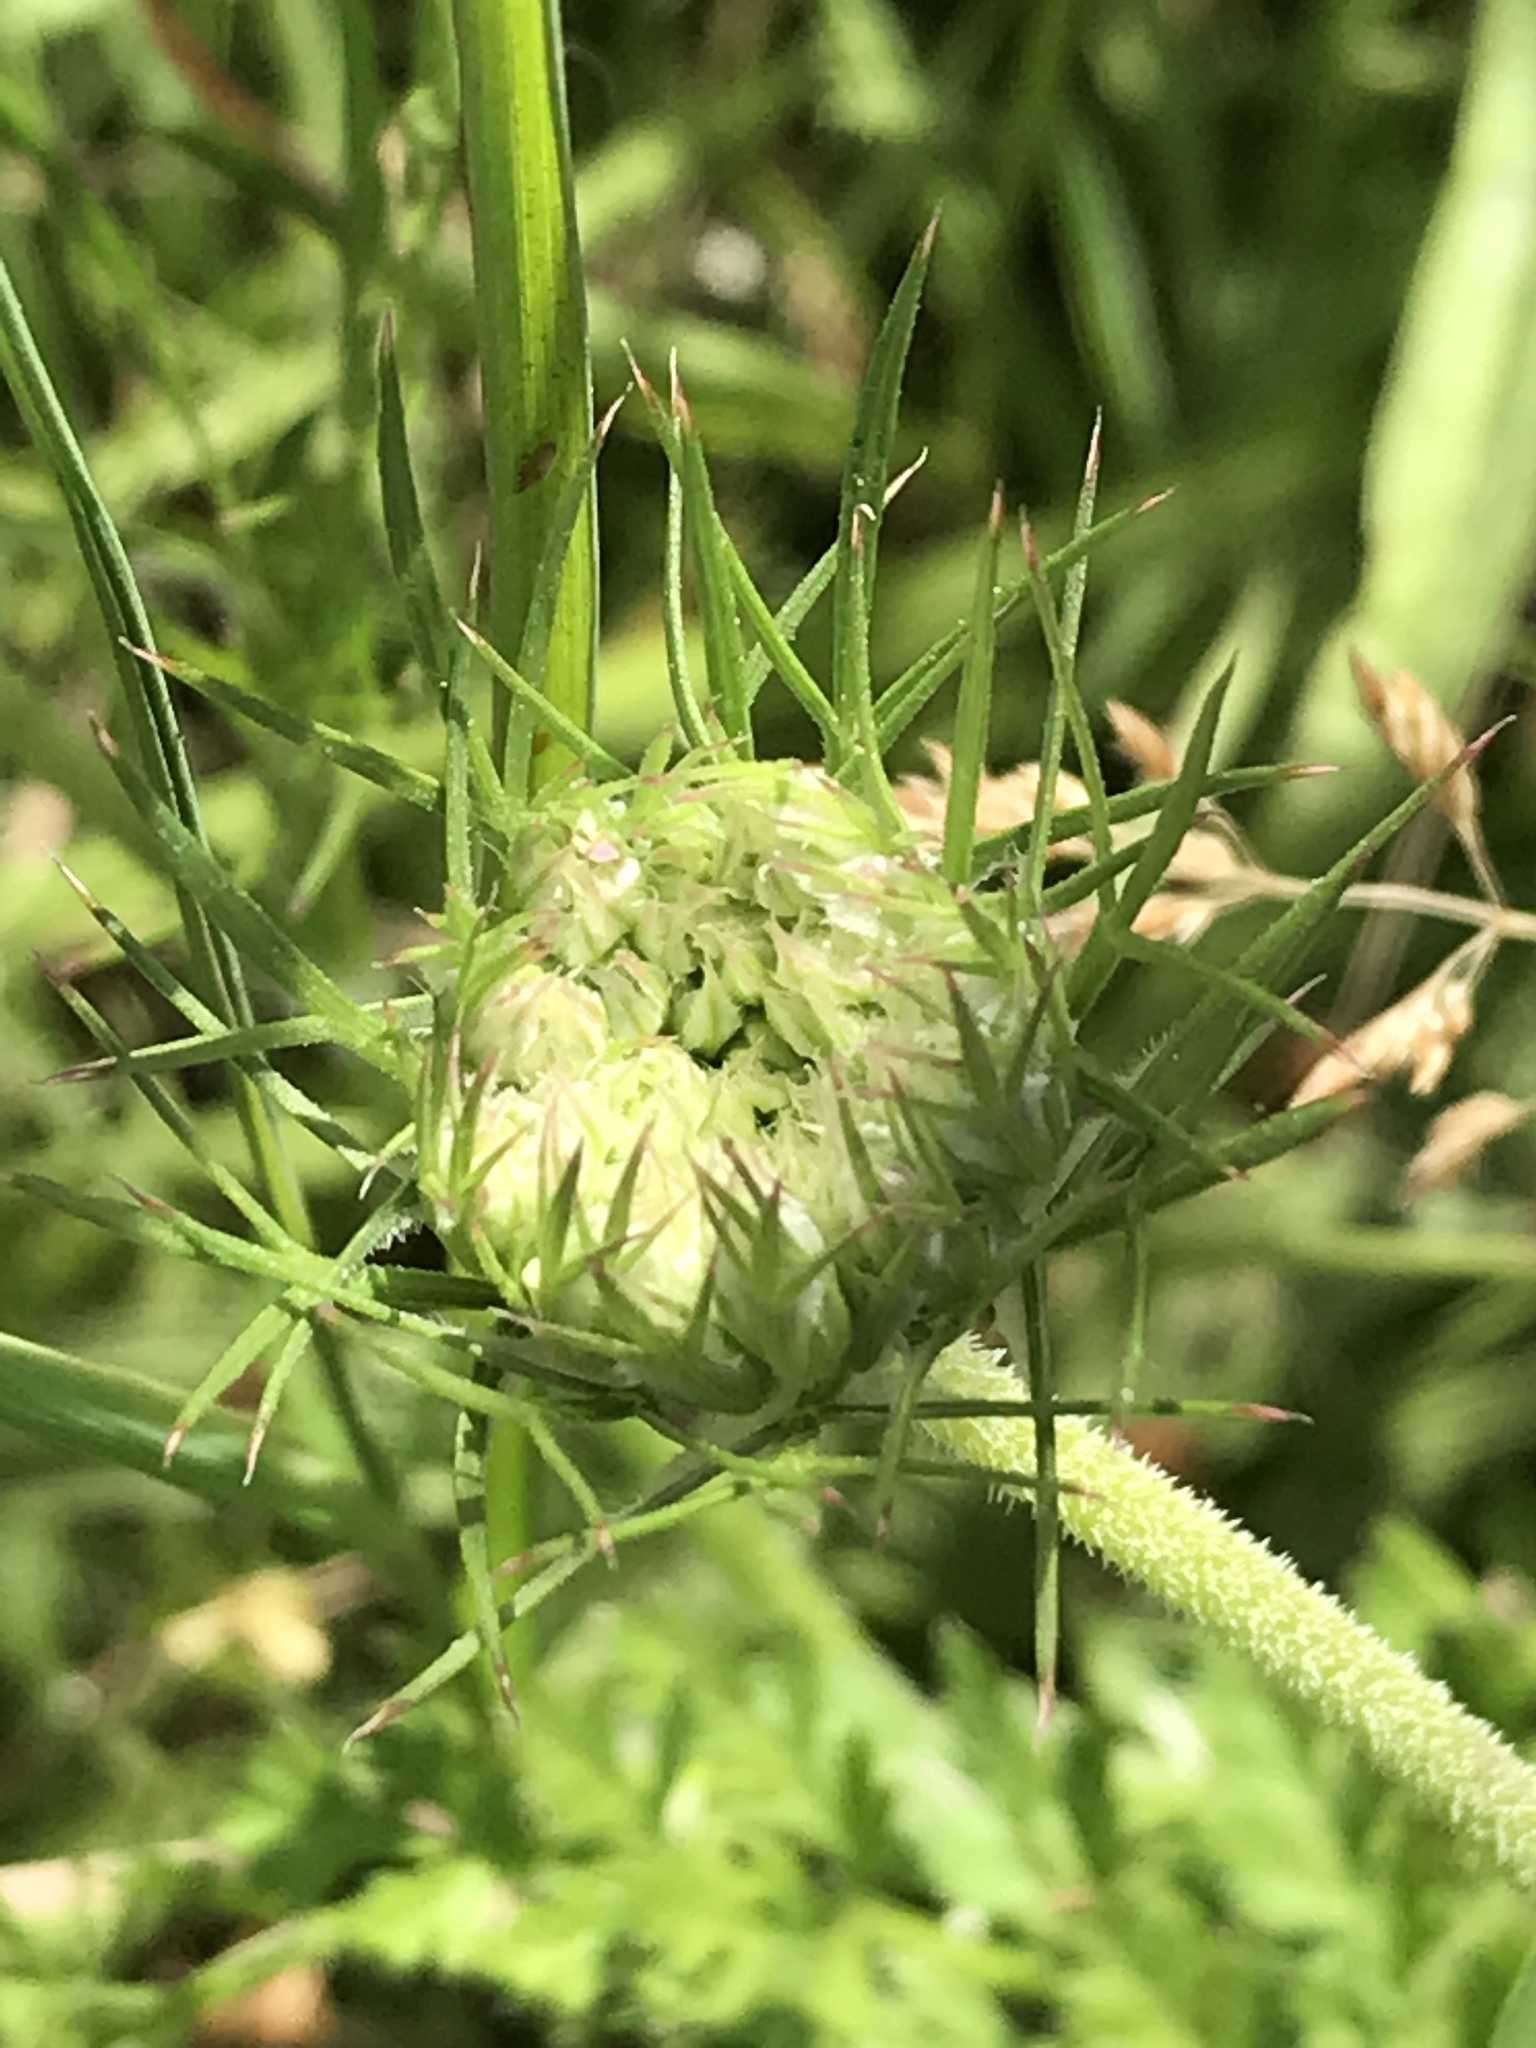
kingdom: Plantae
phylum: Tracheophyta
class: Magnoliopsida
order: Apiales
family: Apiaceae
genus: Daucus
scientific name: Daucus carota
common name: Wild carrot
